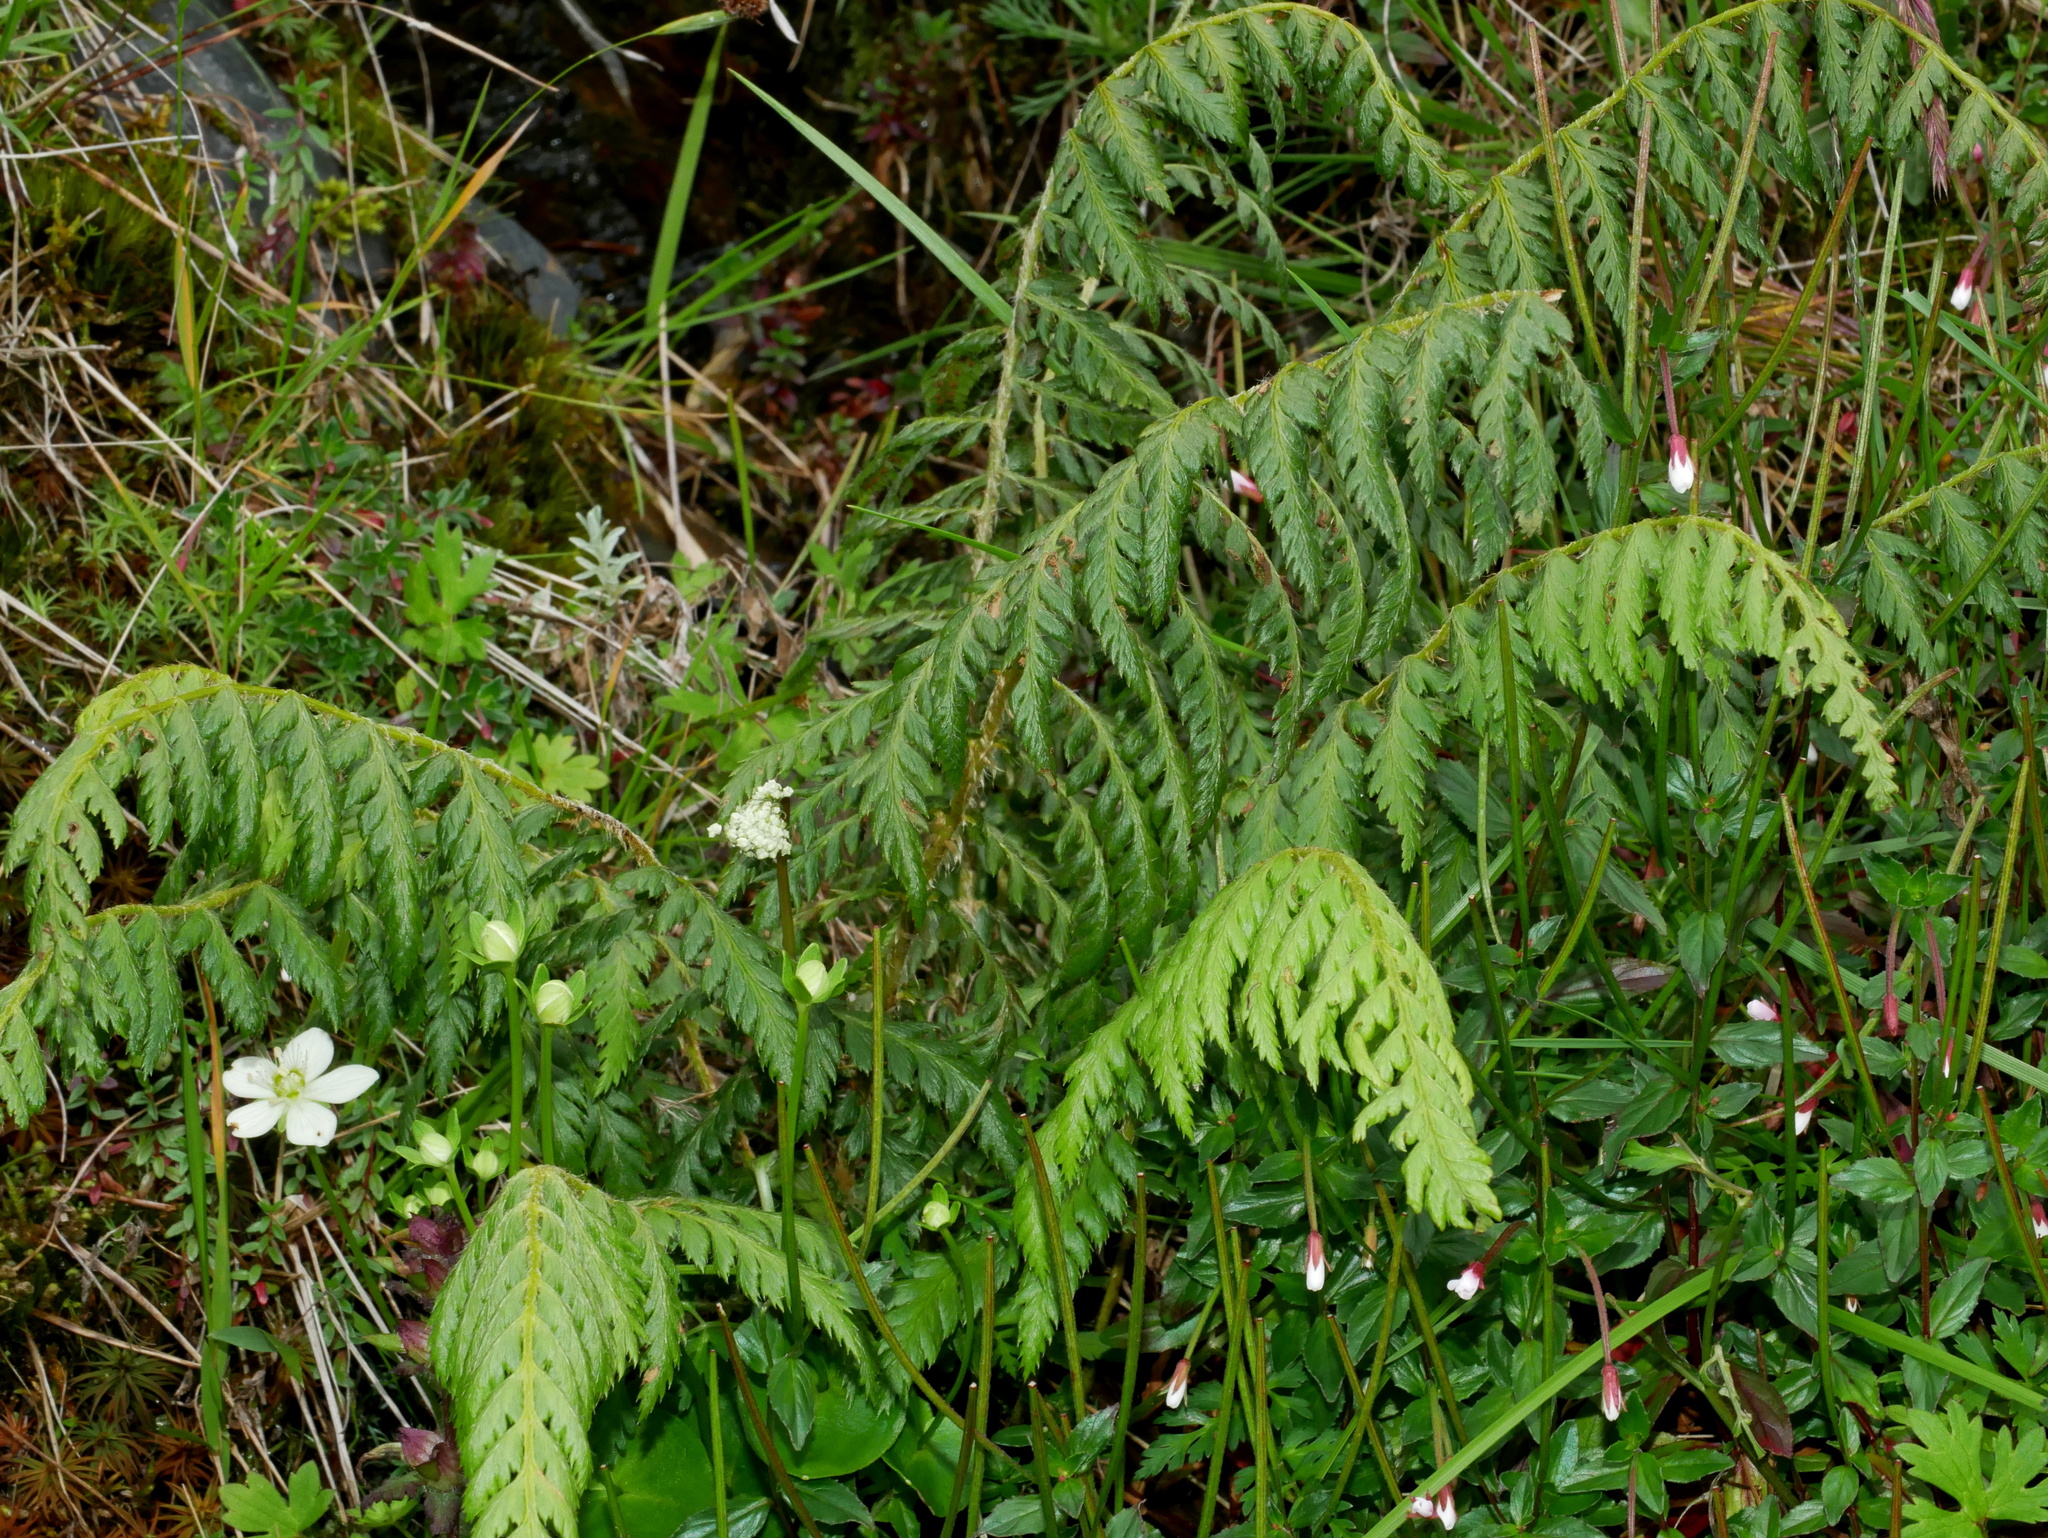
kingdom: Plantae
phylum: Tracheophyta
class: Polypodiopsida
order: Polypodiales
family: Dryopteridaceae
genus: Polystichum
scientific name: Polystichum sinense
